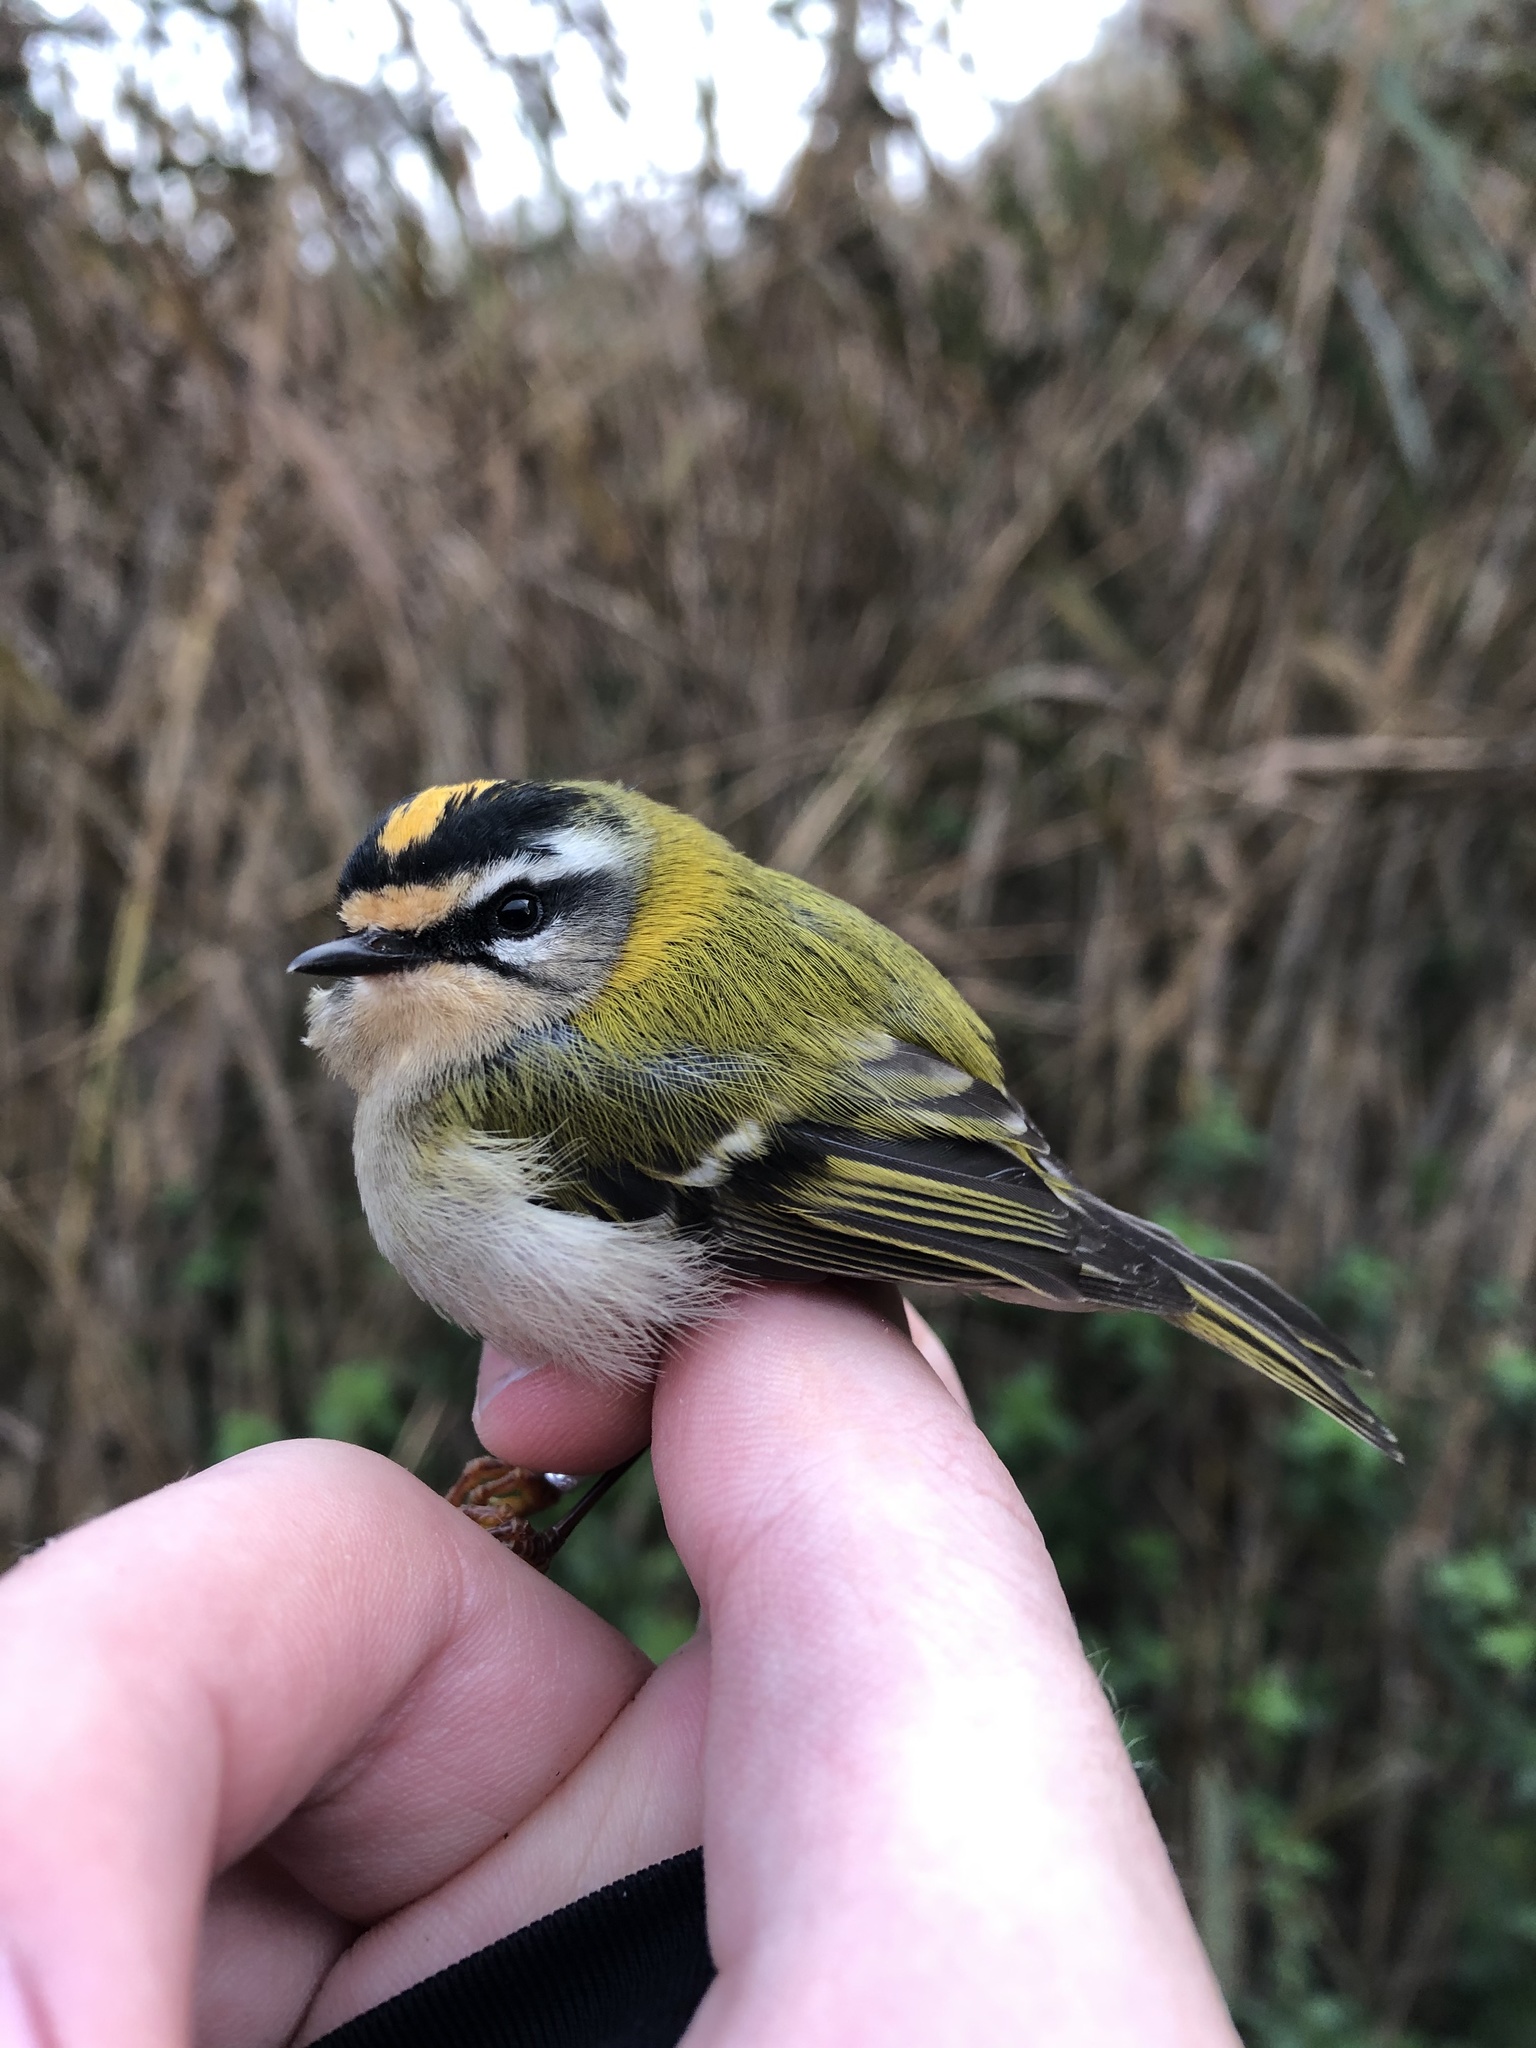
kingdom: Animalia
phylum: Chordata
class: Aves
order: Passeriformes
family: Regulidae
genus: Regulus
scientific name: Regulus ignicapilla
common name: Firecrest
